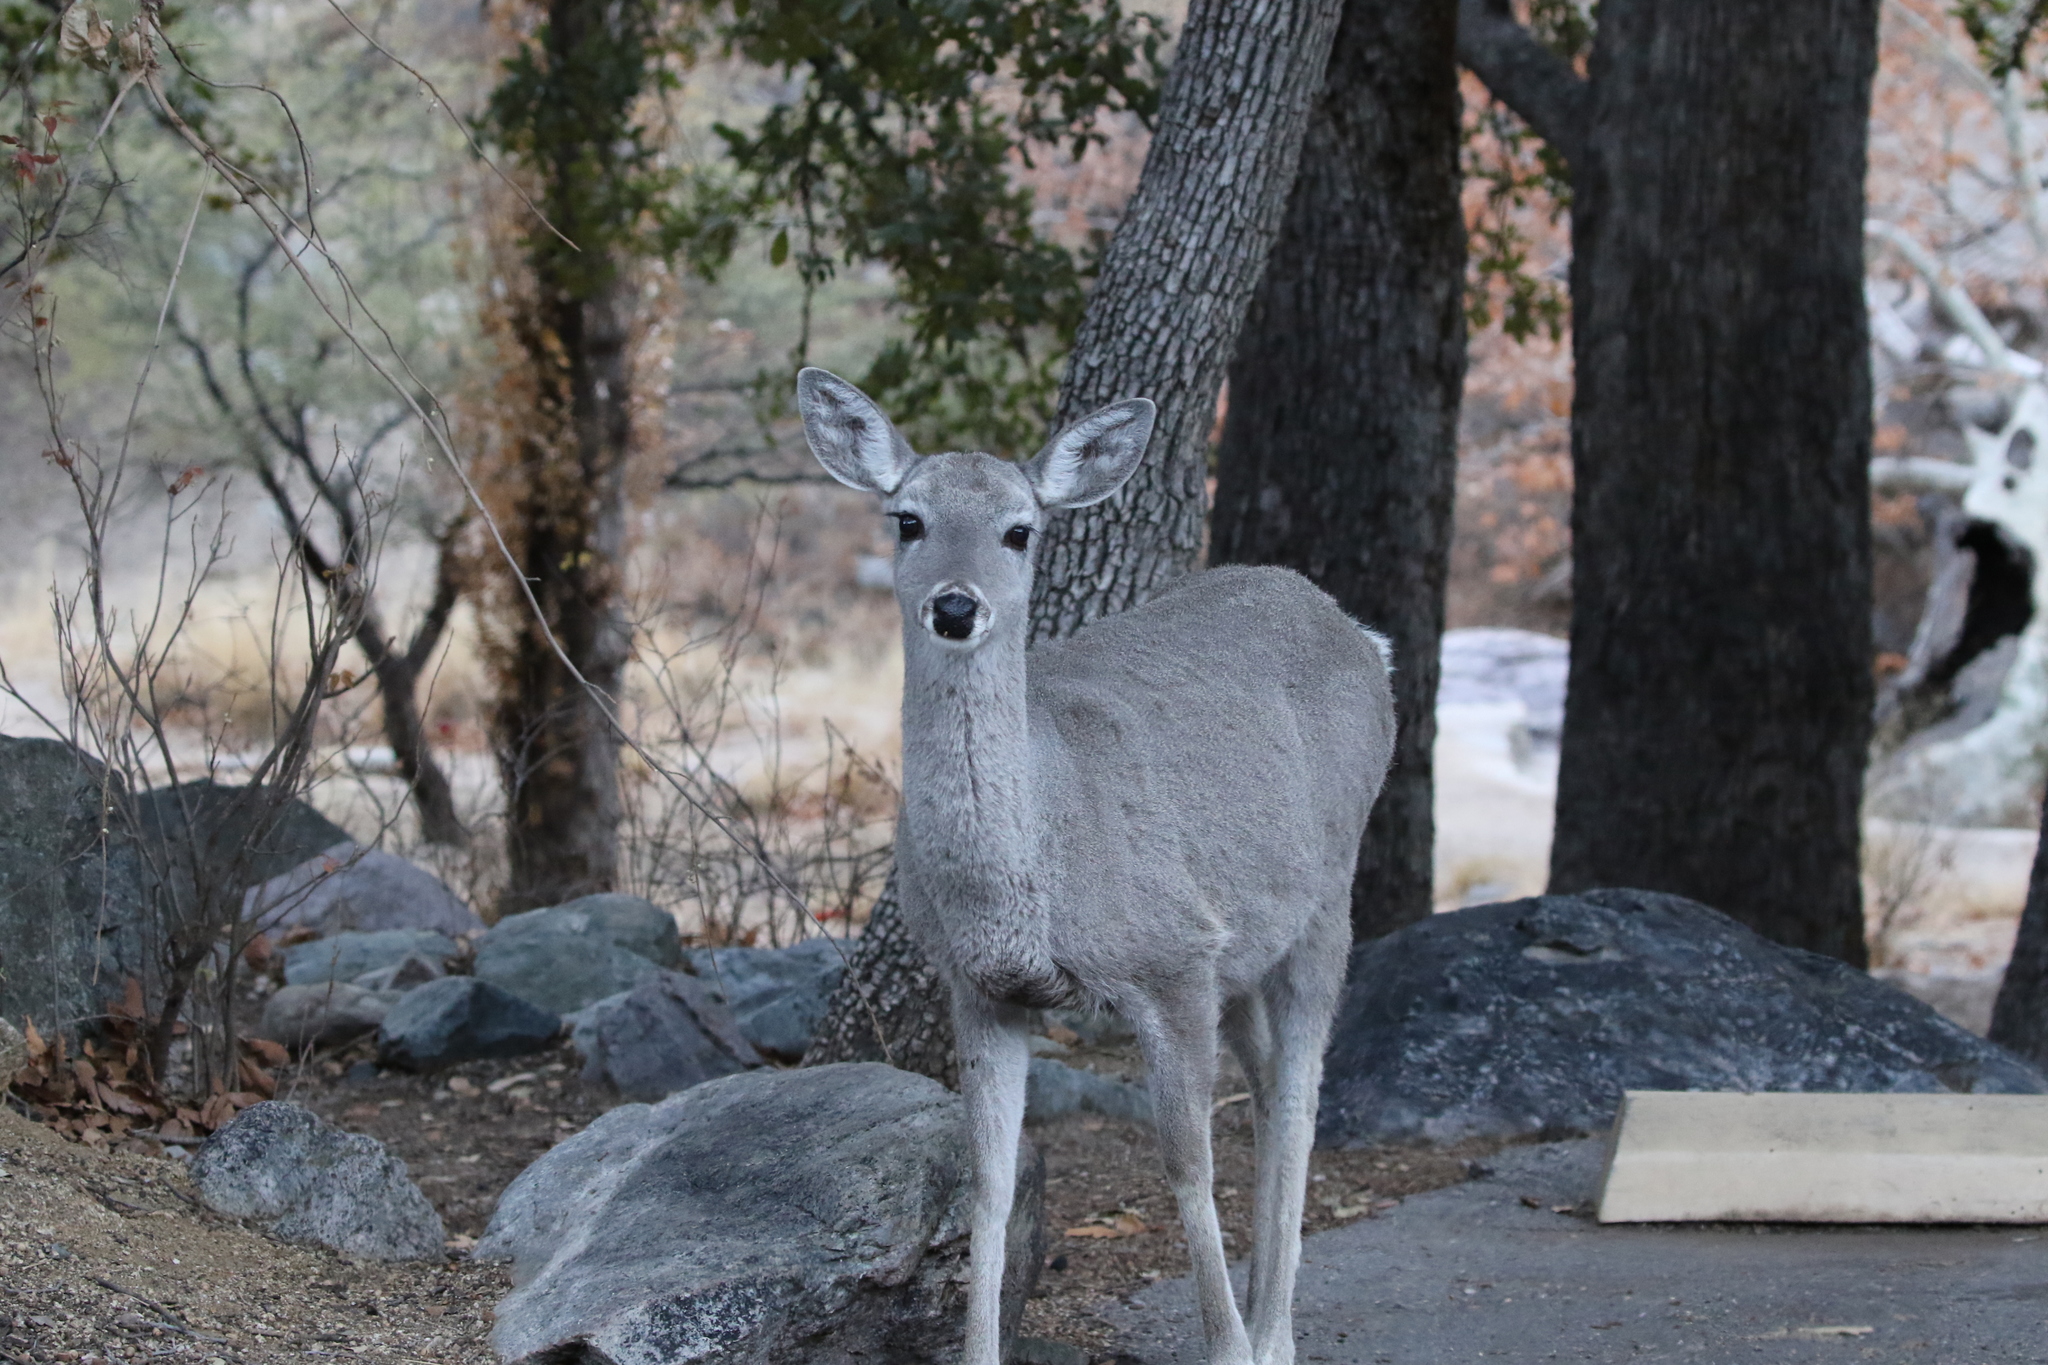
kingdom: Animalia
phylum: Chordata
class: Mammalia
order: Artiodactyla
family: Cervidae
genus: Odocoileus
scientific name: Odocoileus virginianus
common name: White-tailed deer
